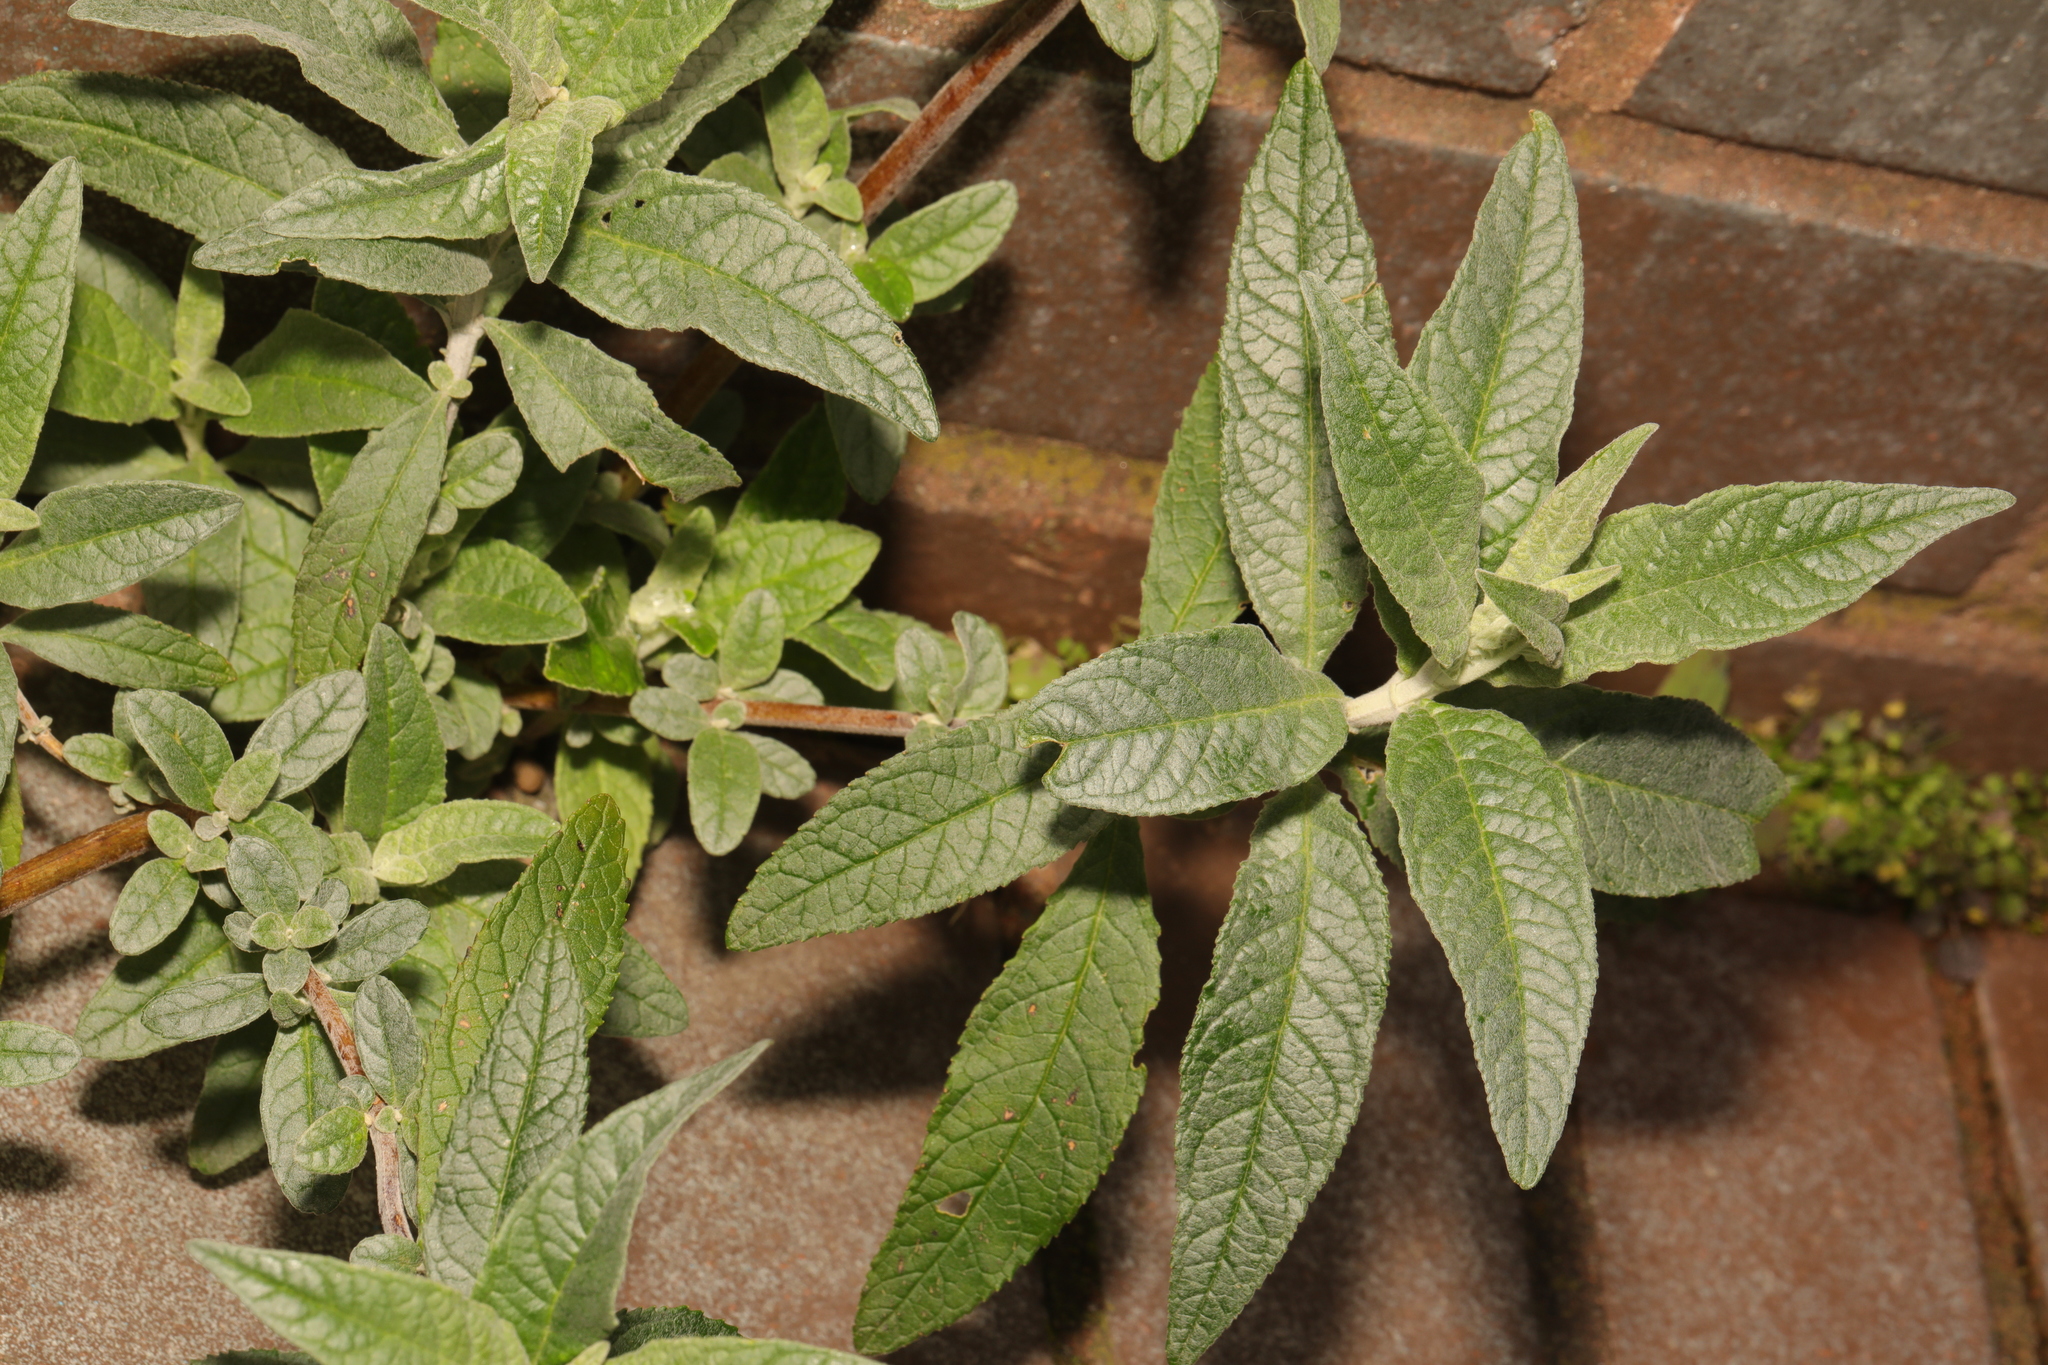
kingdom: Plantae
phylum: Tracheophyta
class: Magnoliopsida
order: Lamiales
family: Scrophulariaceae
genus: Buddleja
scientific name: Buddleja davidii
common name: Butterfly-bush
